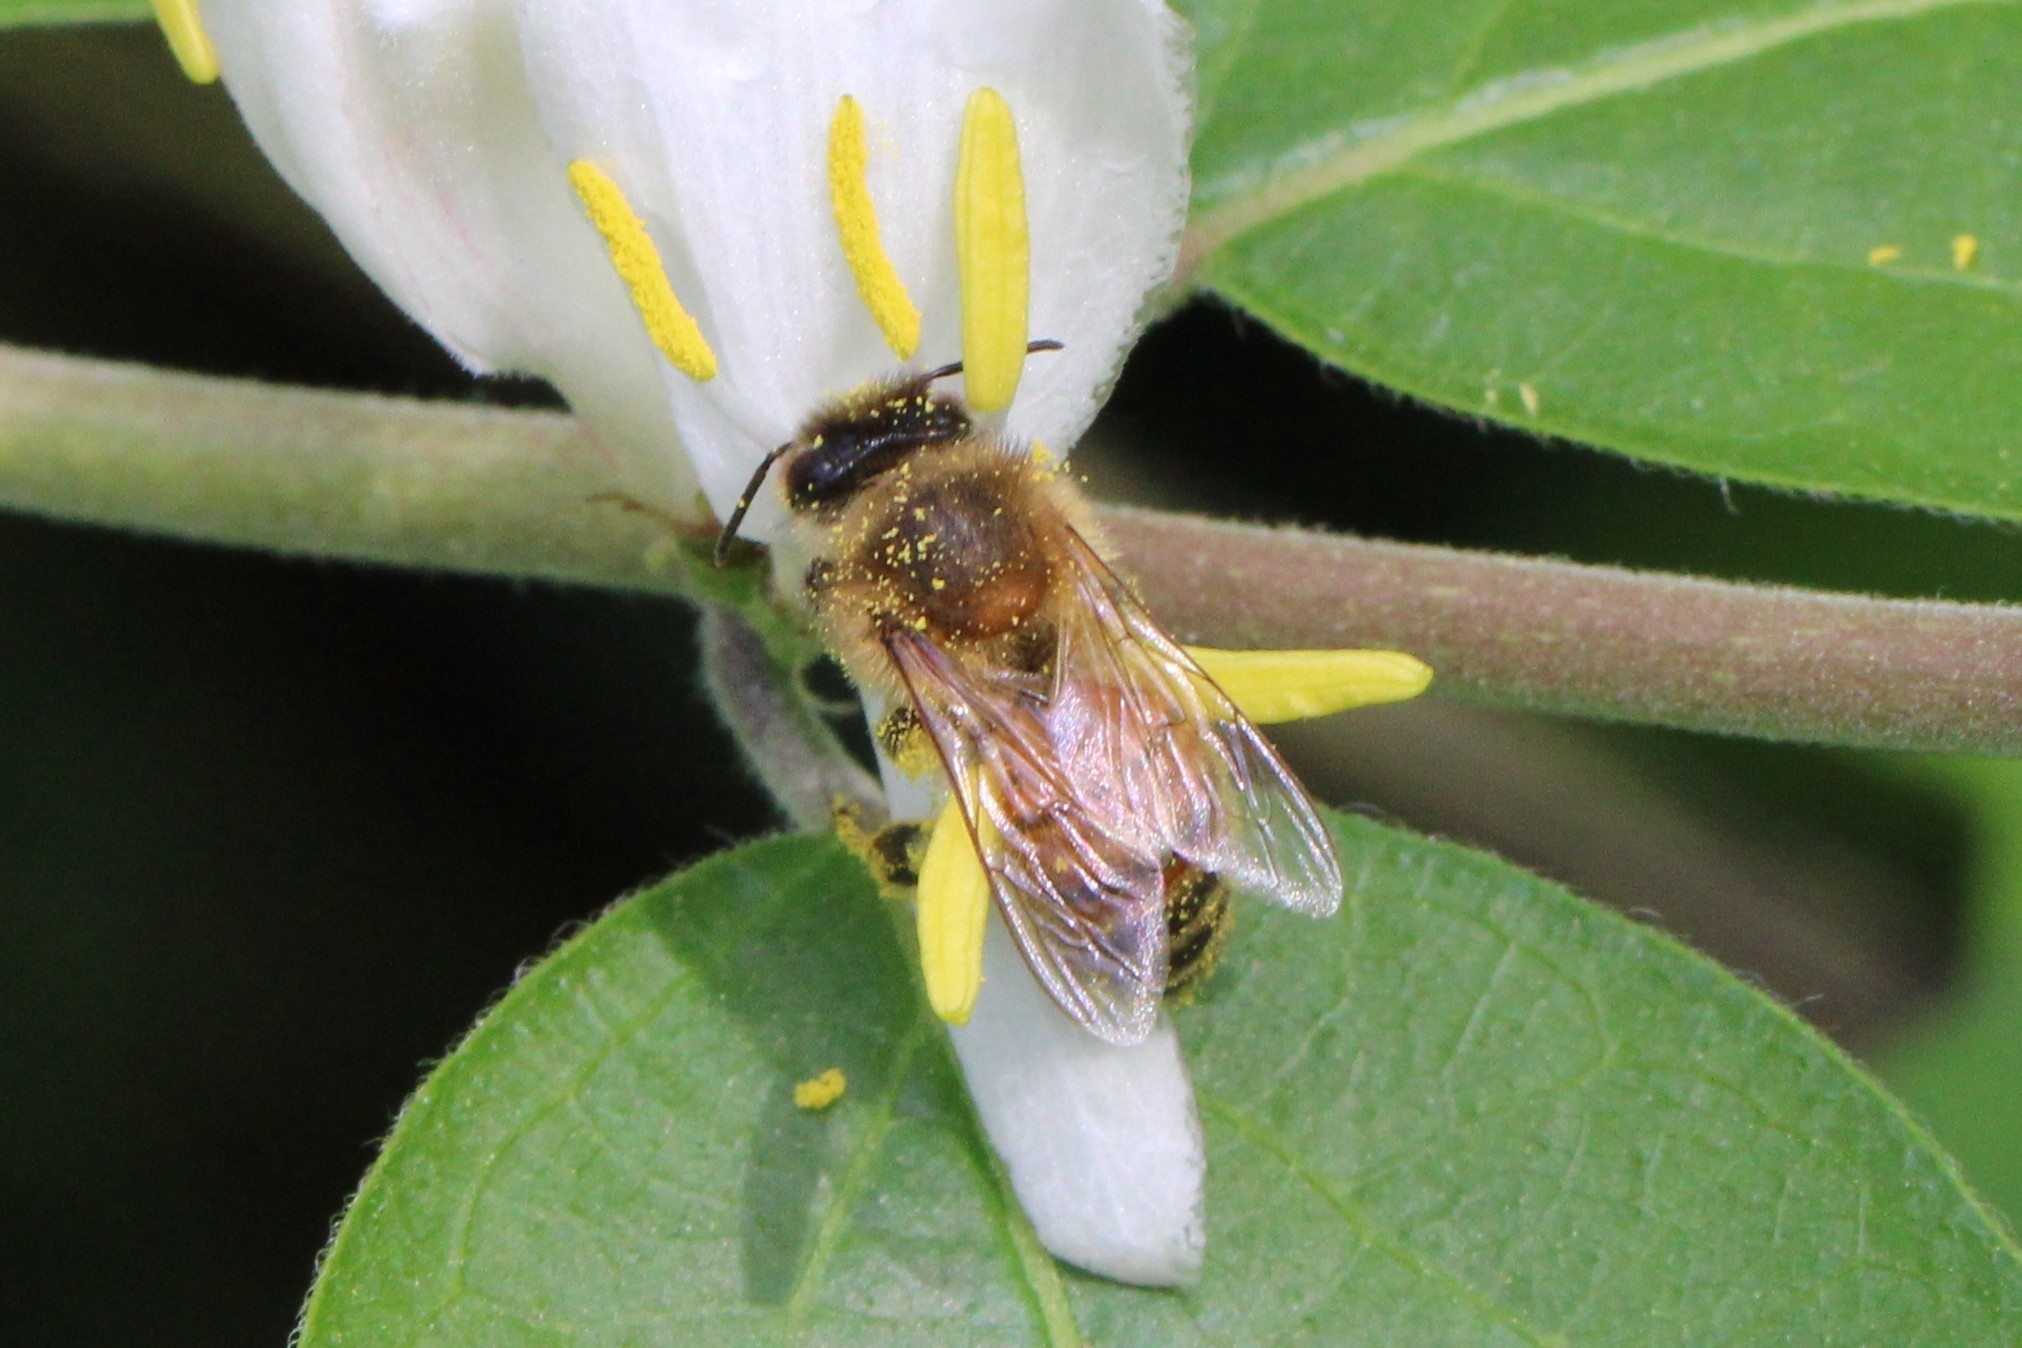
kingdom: Animalia
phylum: Arthropoda
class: Insecta
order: Hymenoptera
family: Apidae
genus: Apis
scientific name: Apis mellifera
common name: Honey bee
